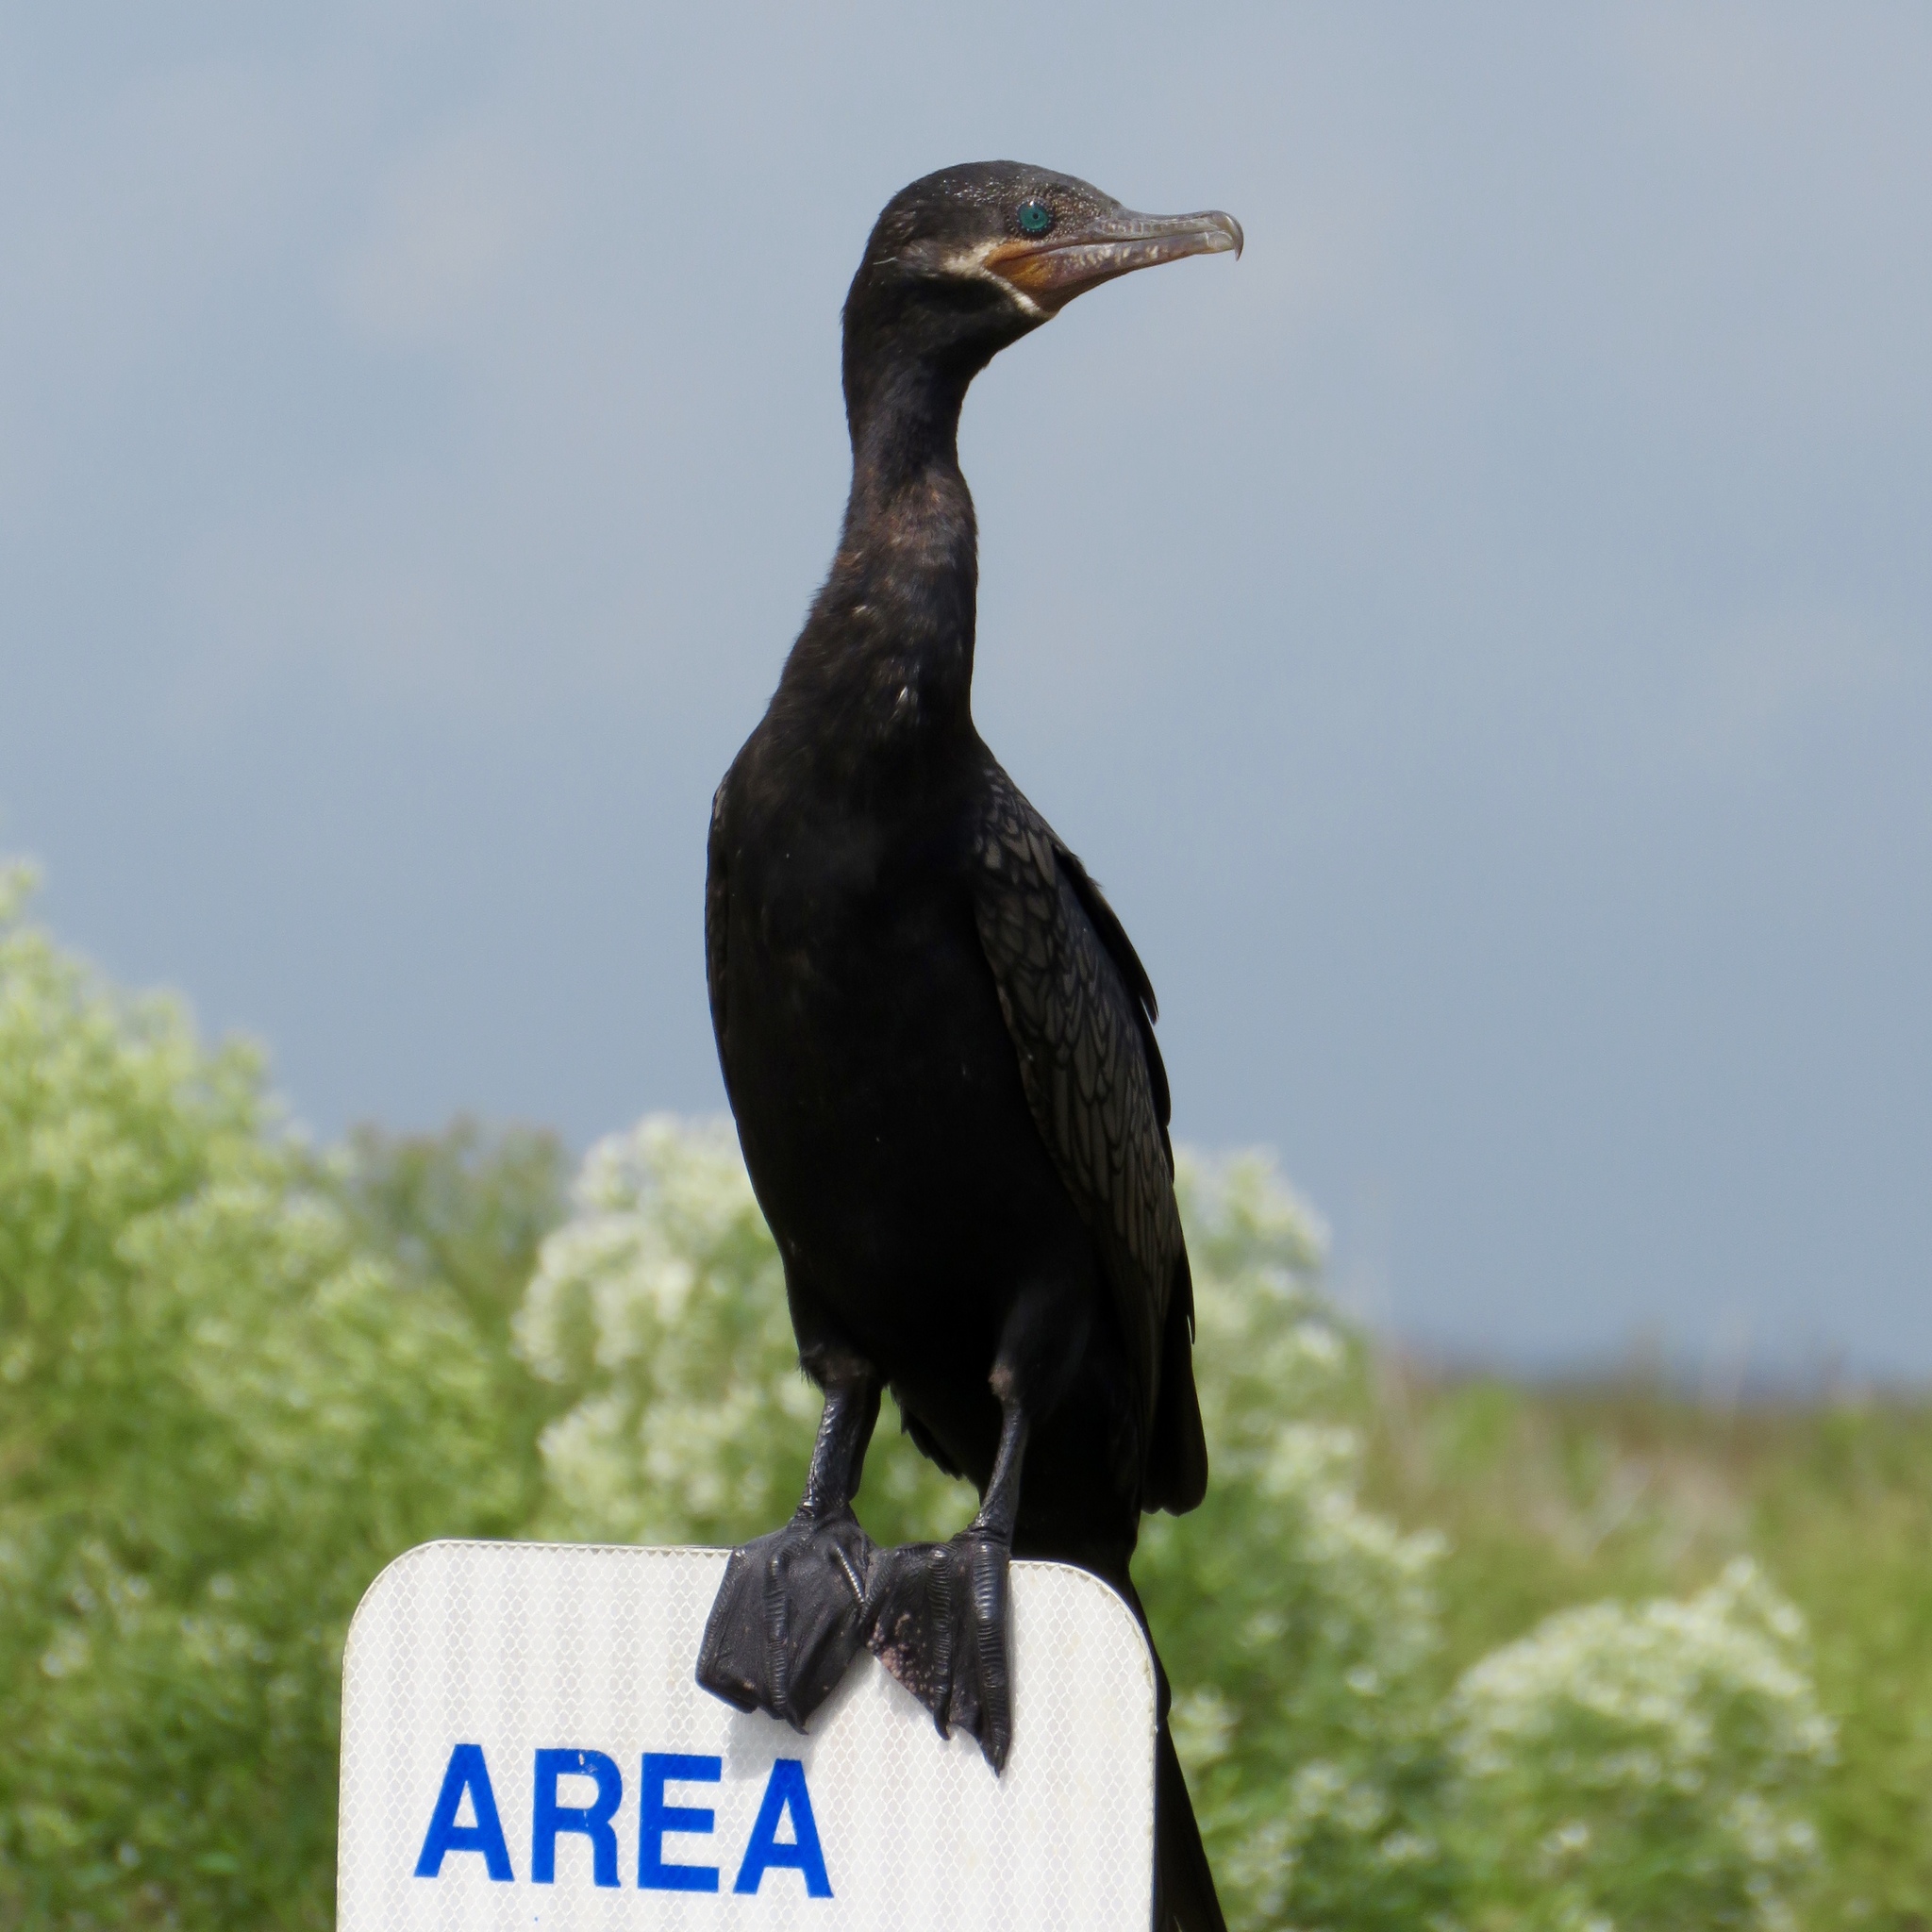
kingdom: Animalia
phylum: Chordata
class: Aves
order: Suliformes
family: Phalacrocoracidae
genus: Phalacrocorax
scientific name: Phalacrocorax brasilianus
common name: Neotropic cormorant
